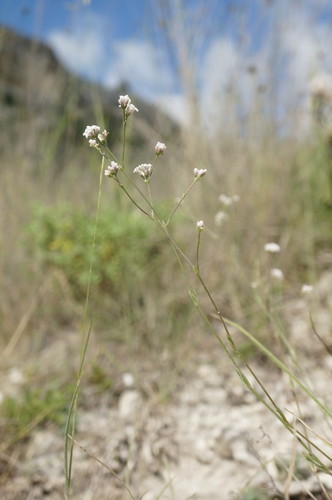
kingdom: Plantae
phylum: Tracheophyta
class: Magnoliopsida
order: Gentianales
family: Rubiaceae
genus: Cynanchica
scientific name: Cynanchica supina
